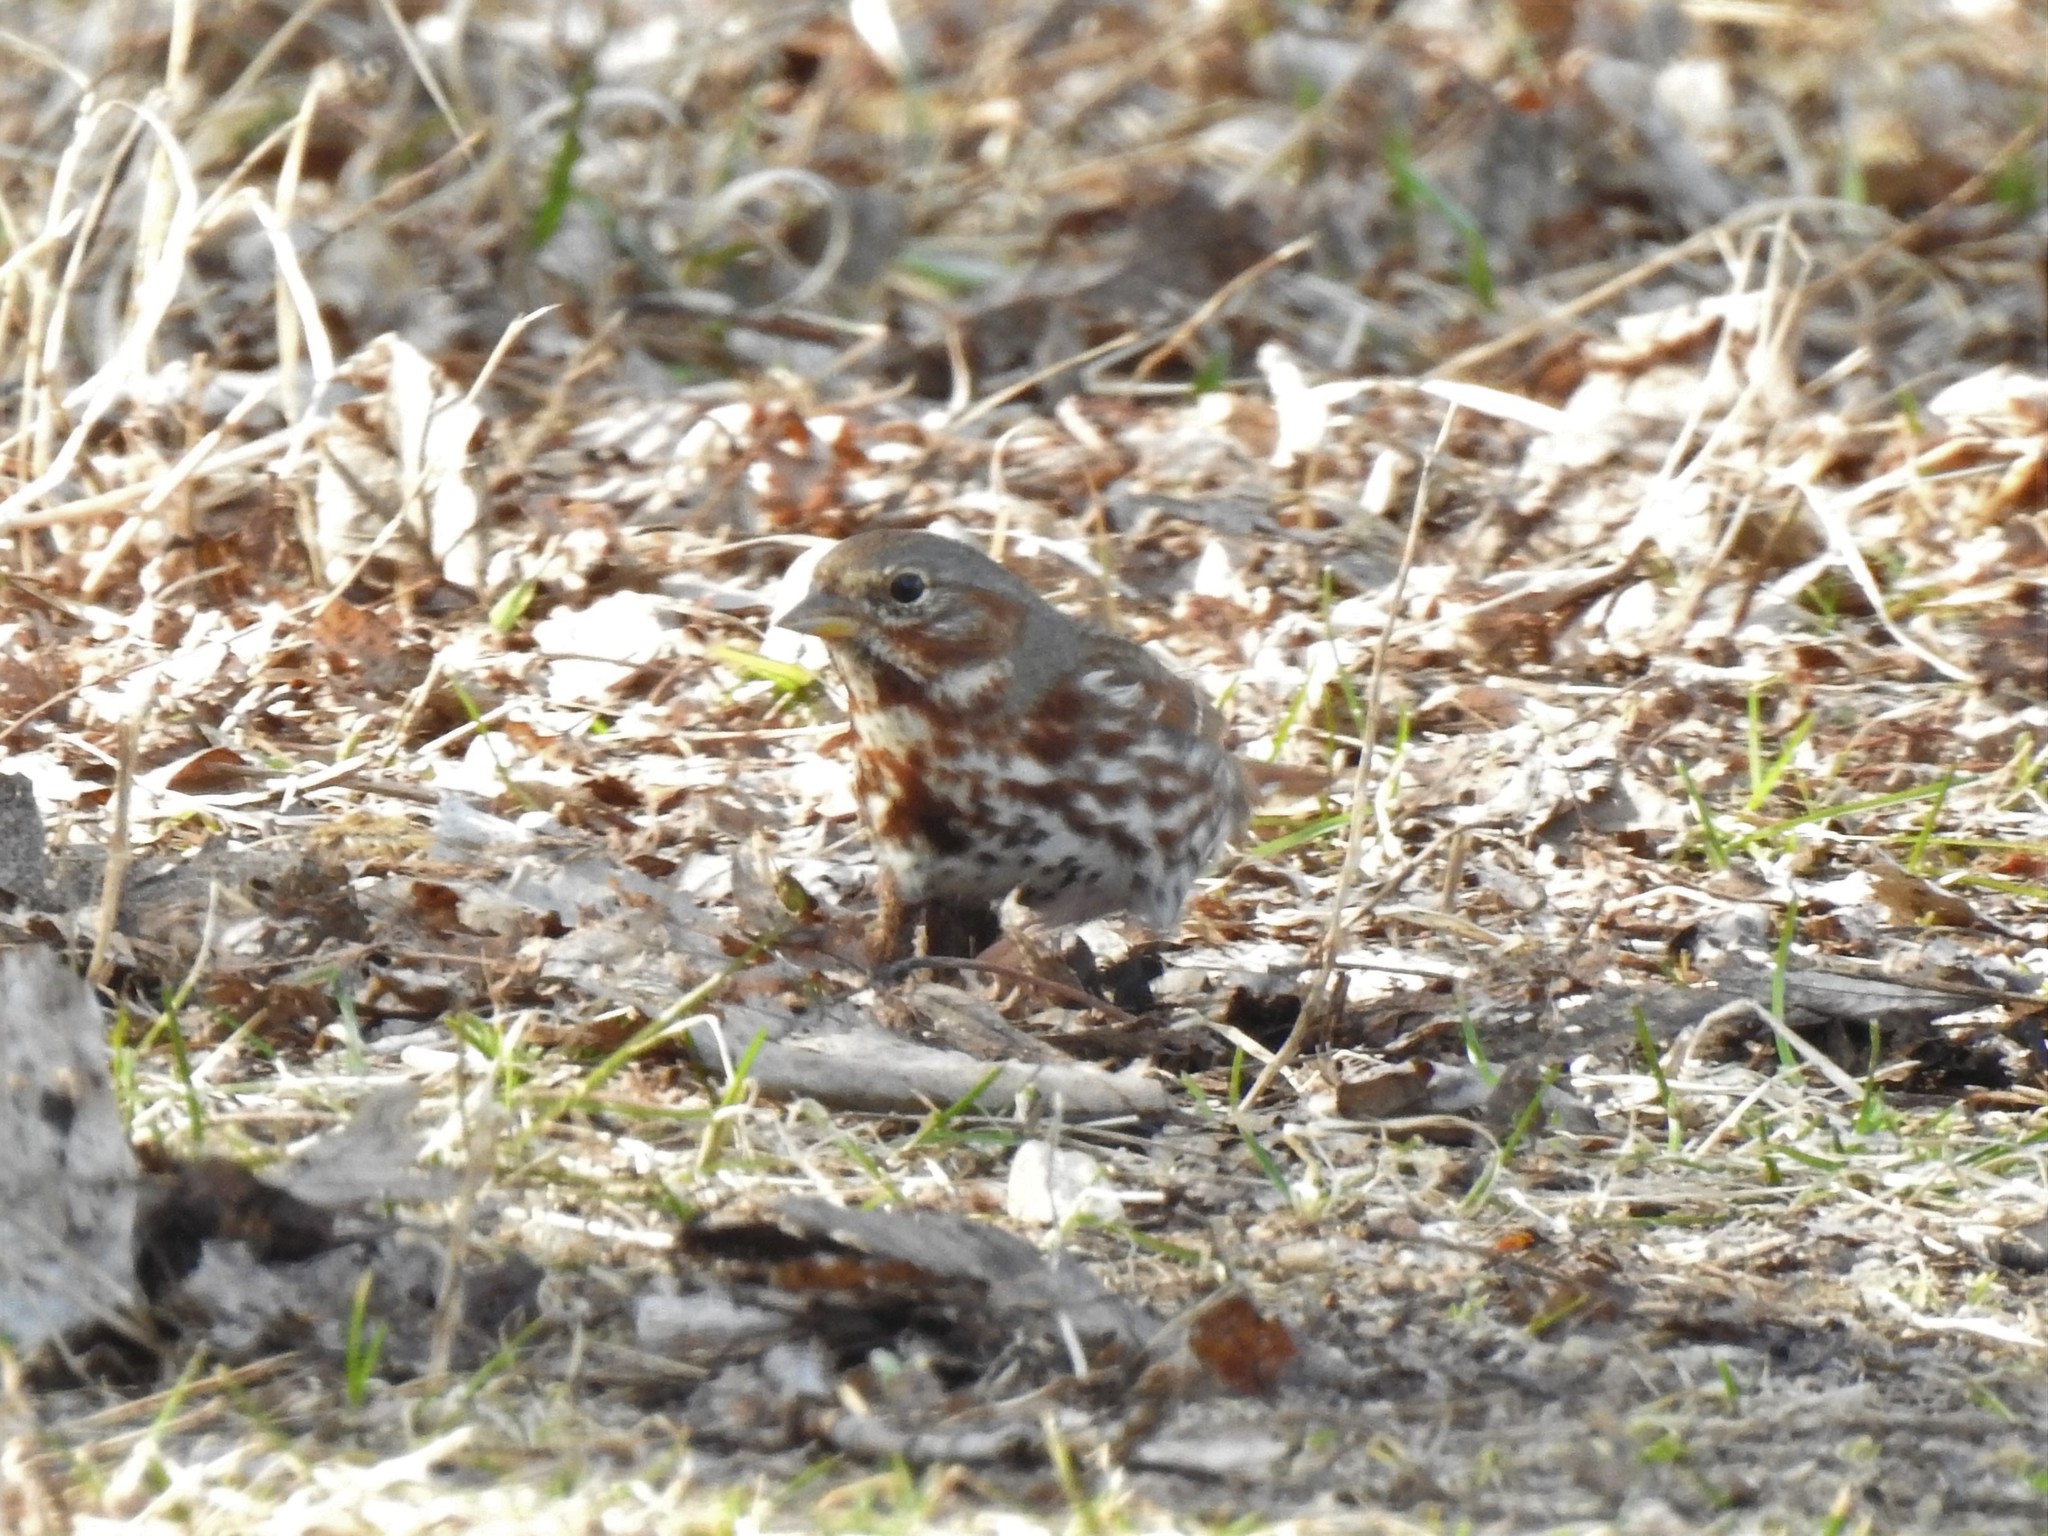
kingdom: Animalia
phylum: Chordata
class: Aves
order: Passeriformes
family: Passerellidae
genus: Passerella
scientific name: Passerella iliaca
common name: Fox sparrow
